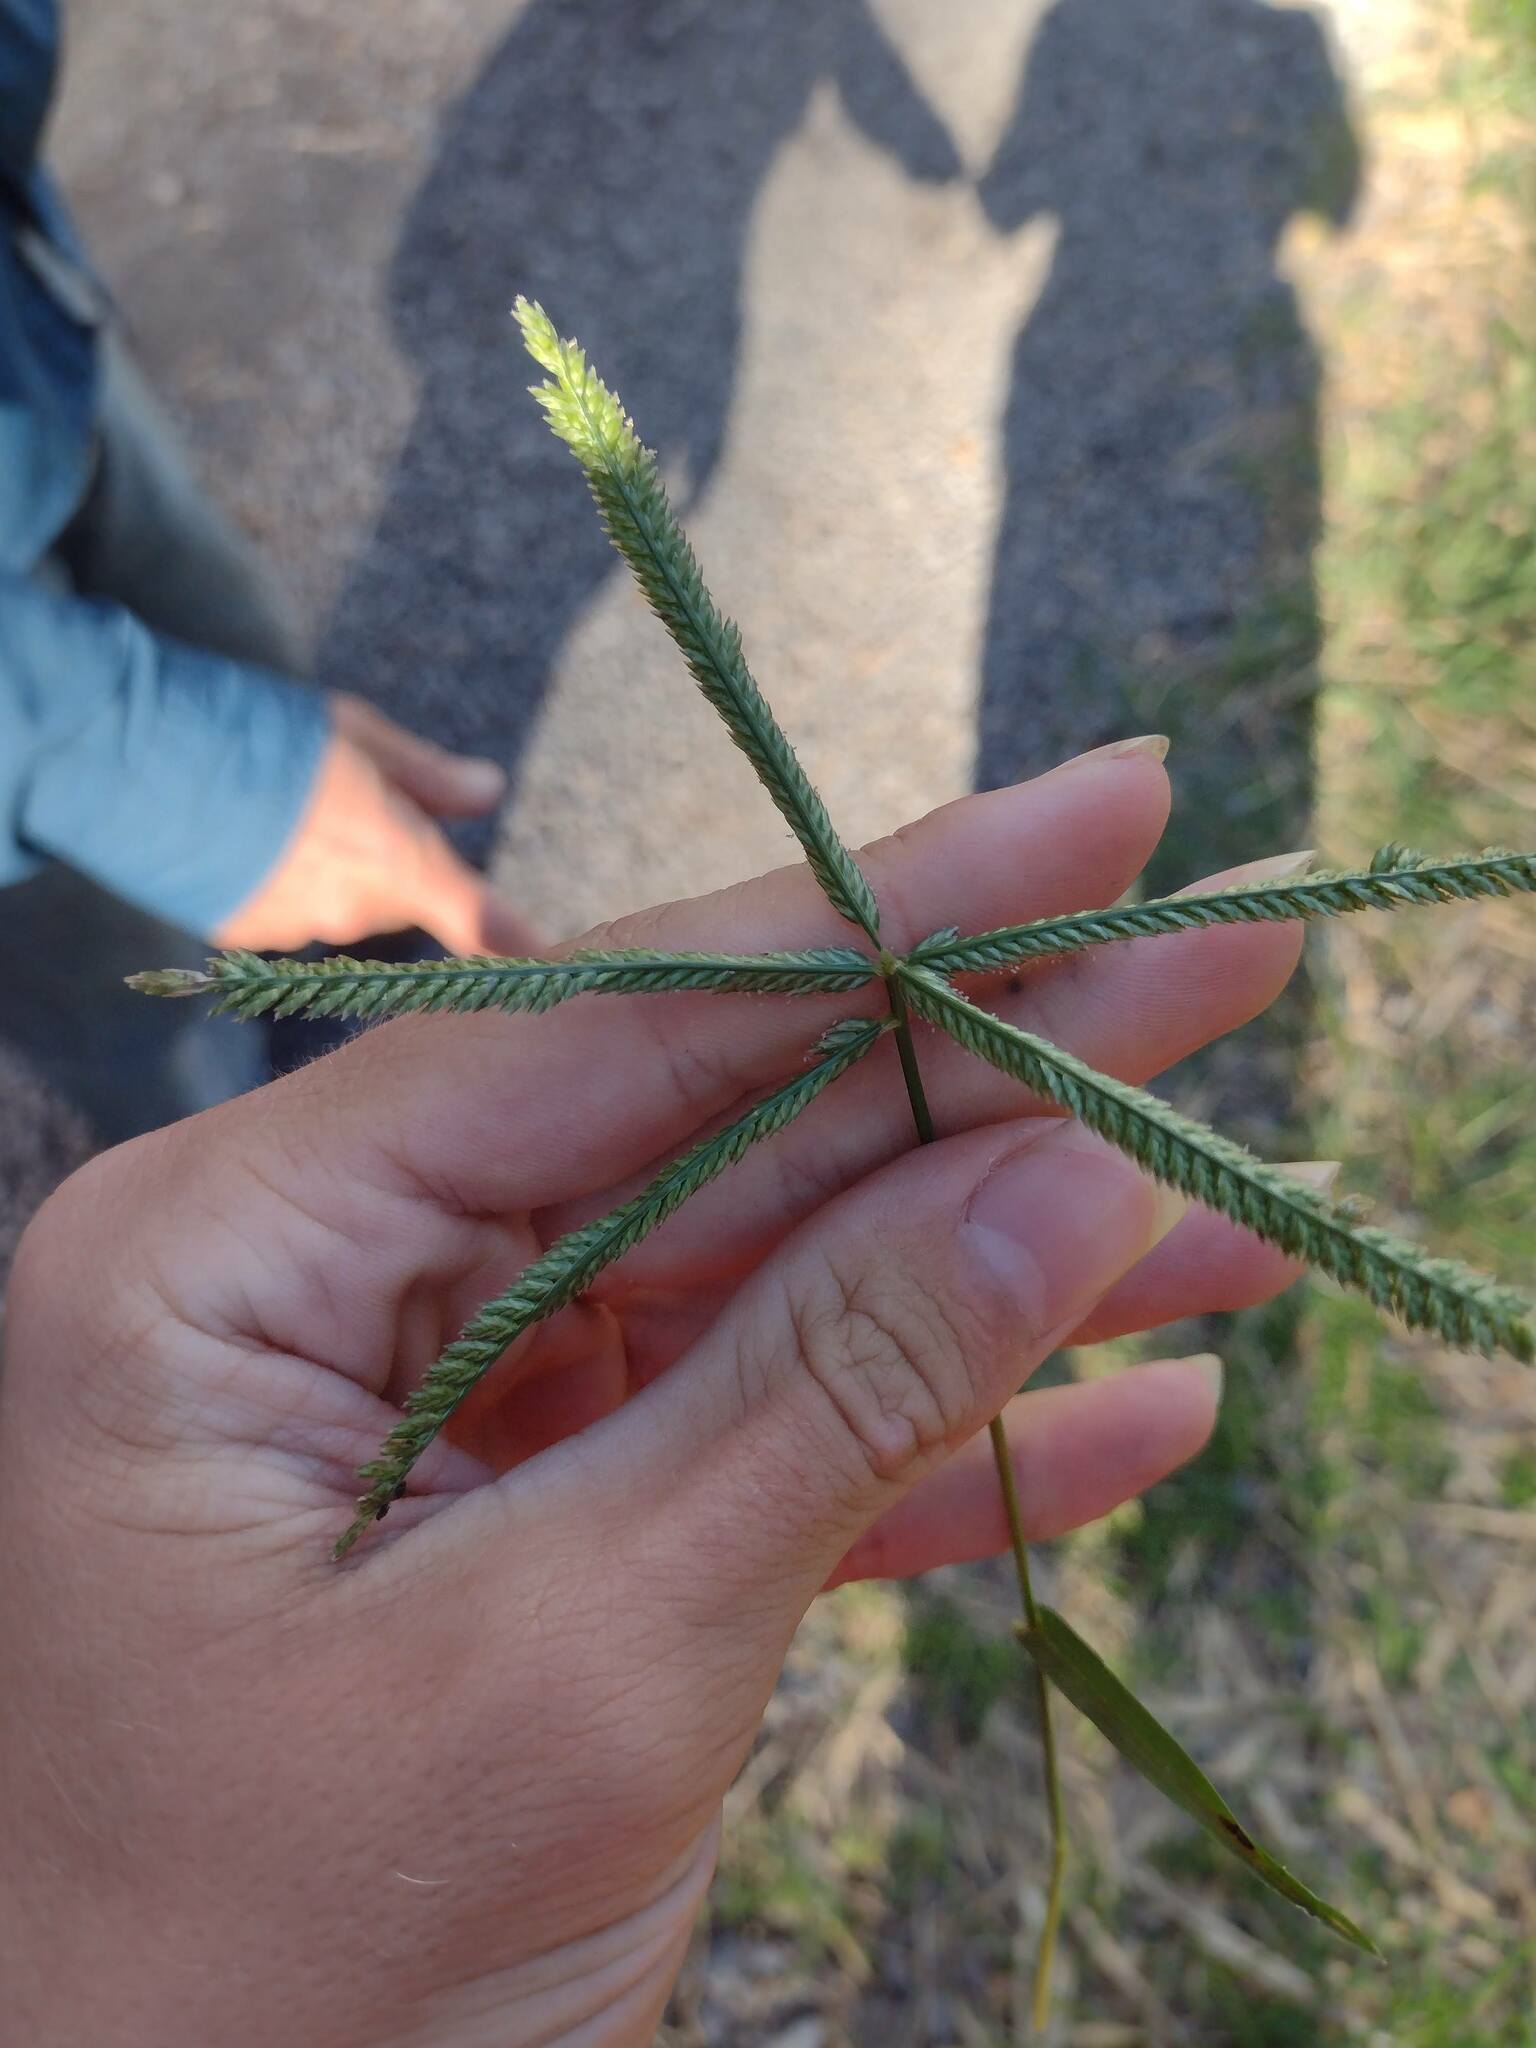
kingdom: Plantae
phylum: Tracheophyta
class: Liliopsida
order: Poales
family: Poaceae
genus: Eleusine
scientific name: Eleusine indica
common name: Yard-grass
